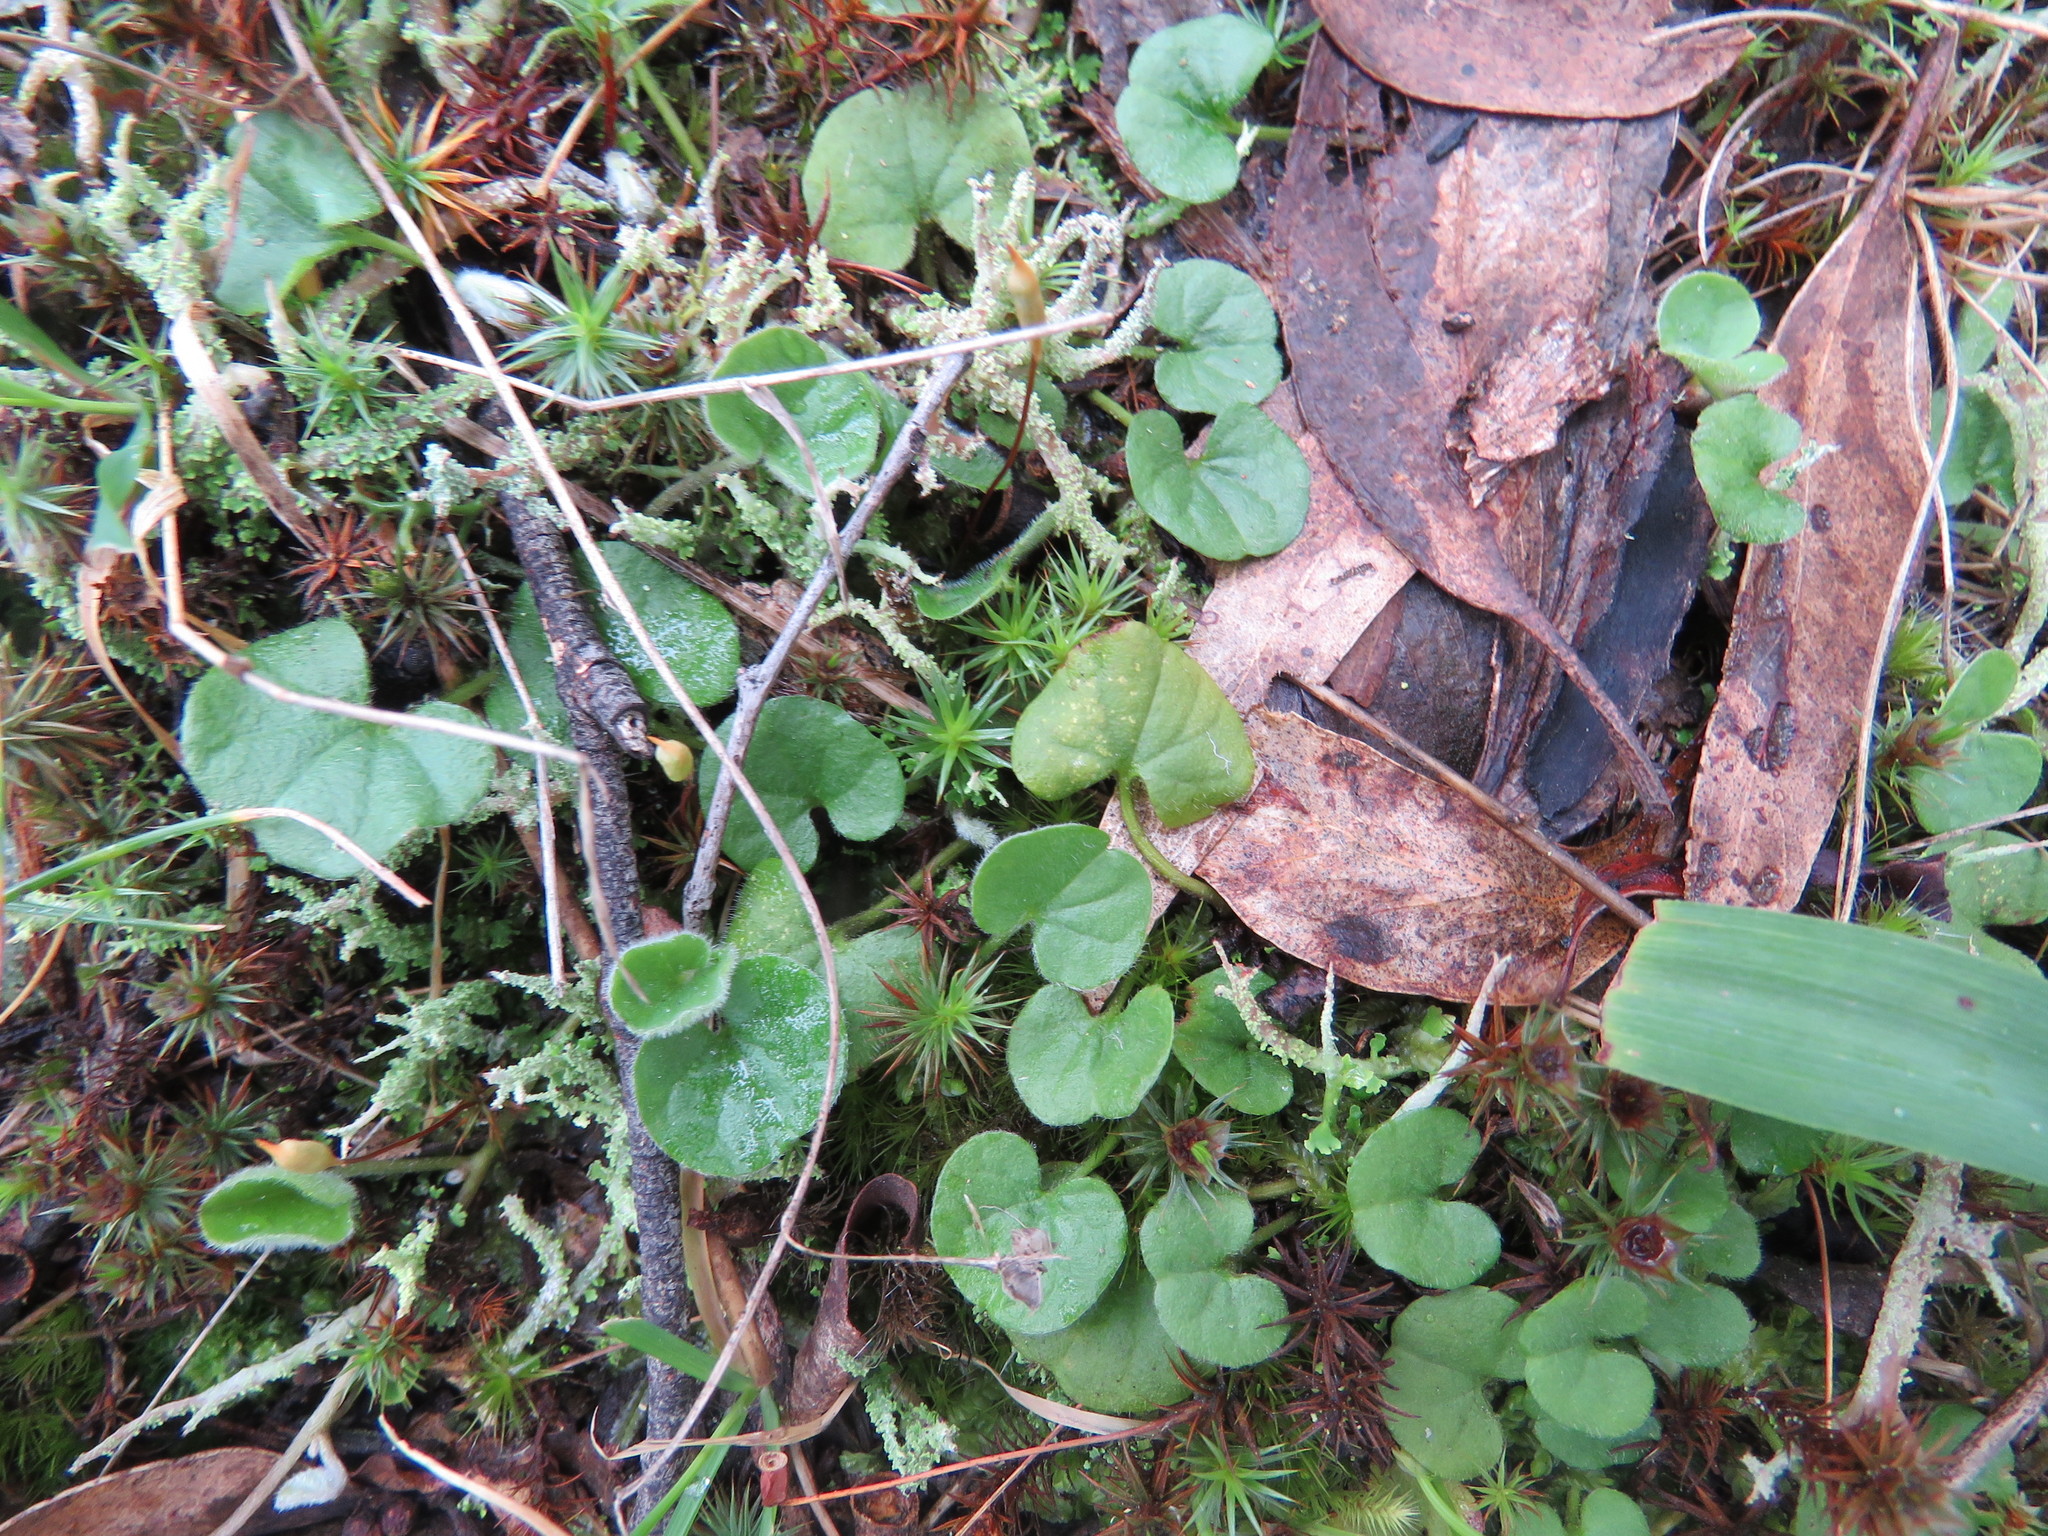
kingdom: Plantae
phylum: Tracheophyta
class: Magnoliopsida
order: Solanales
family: Convolvulaceae
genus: Dichondra
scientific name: Dichondra repens
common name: Kidneyweed
